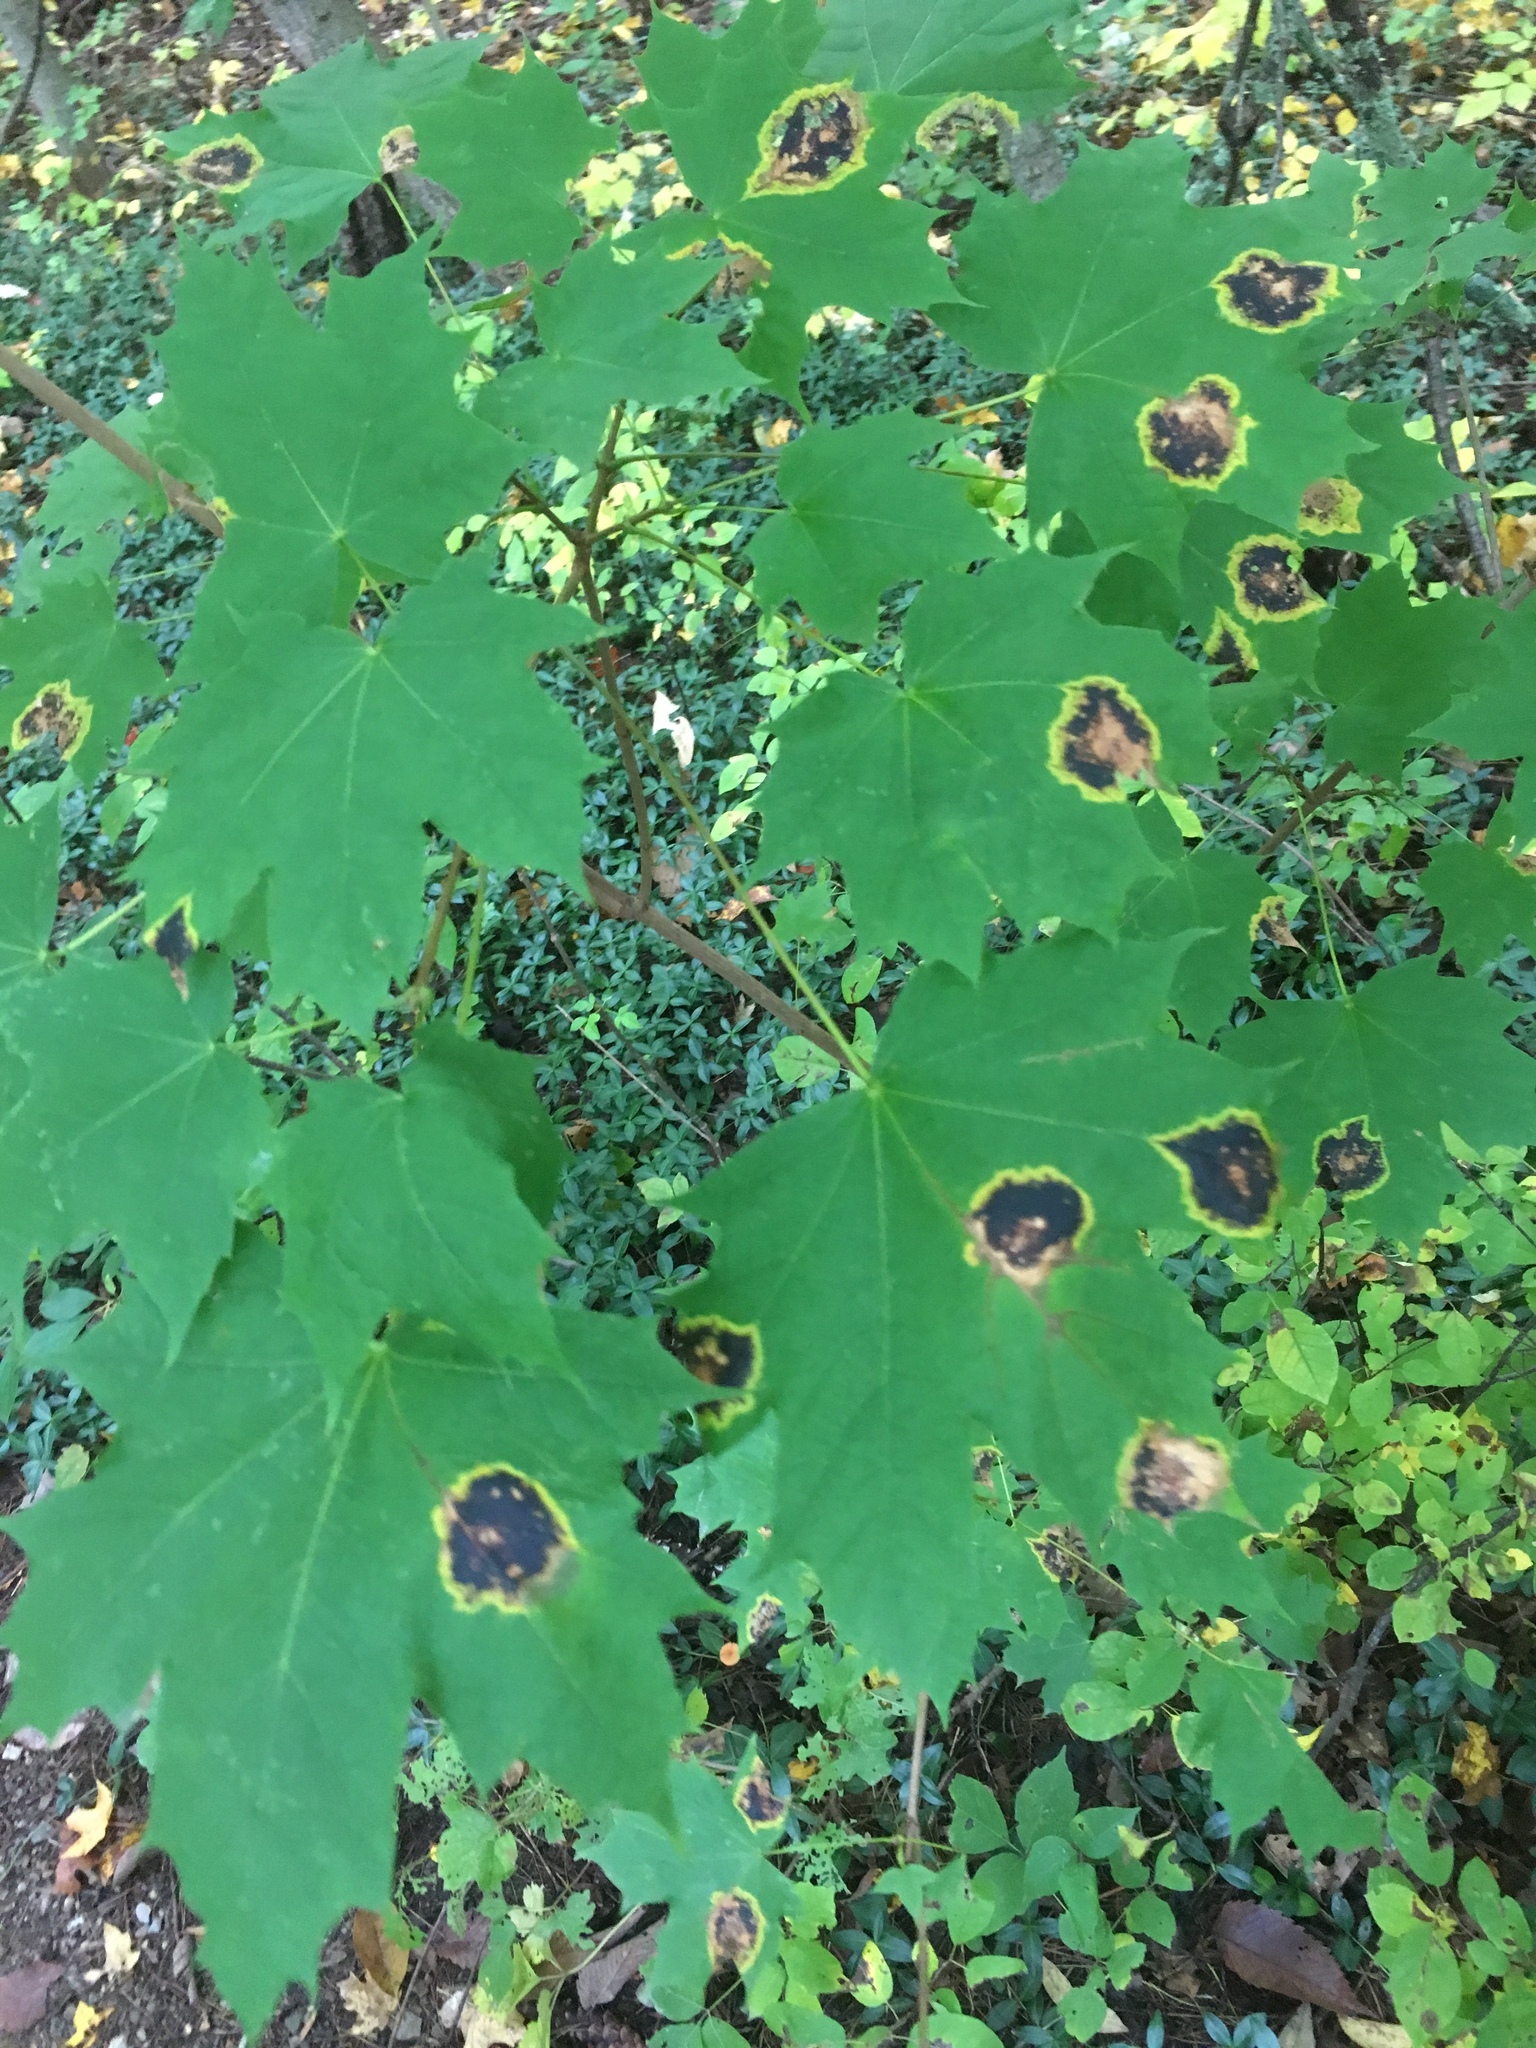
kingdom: Fungi
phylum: Ascomycota
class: Leotiomycetes
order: Rhytismatales
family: Rhytismataceae
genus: Rhytisma
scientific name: Rhytisma acerinum
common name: European tar spot
